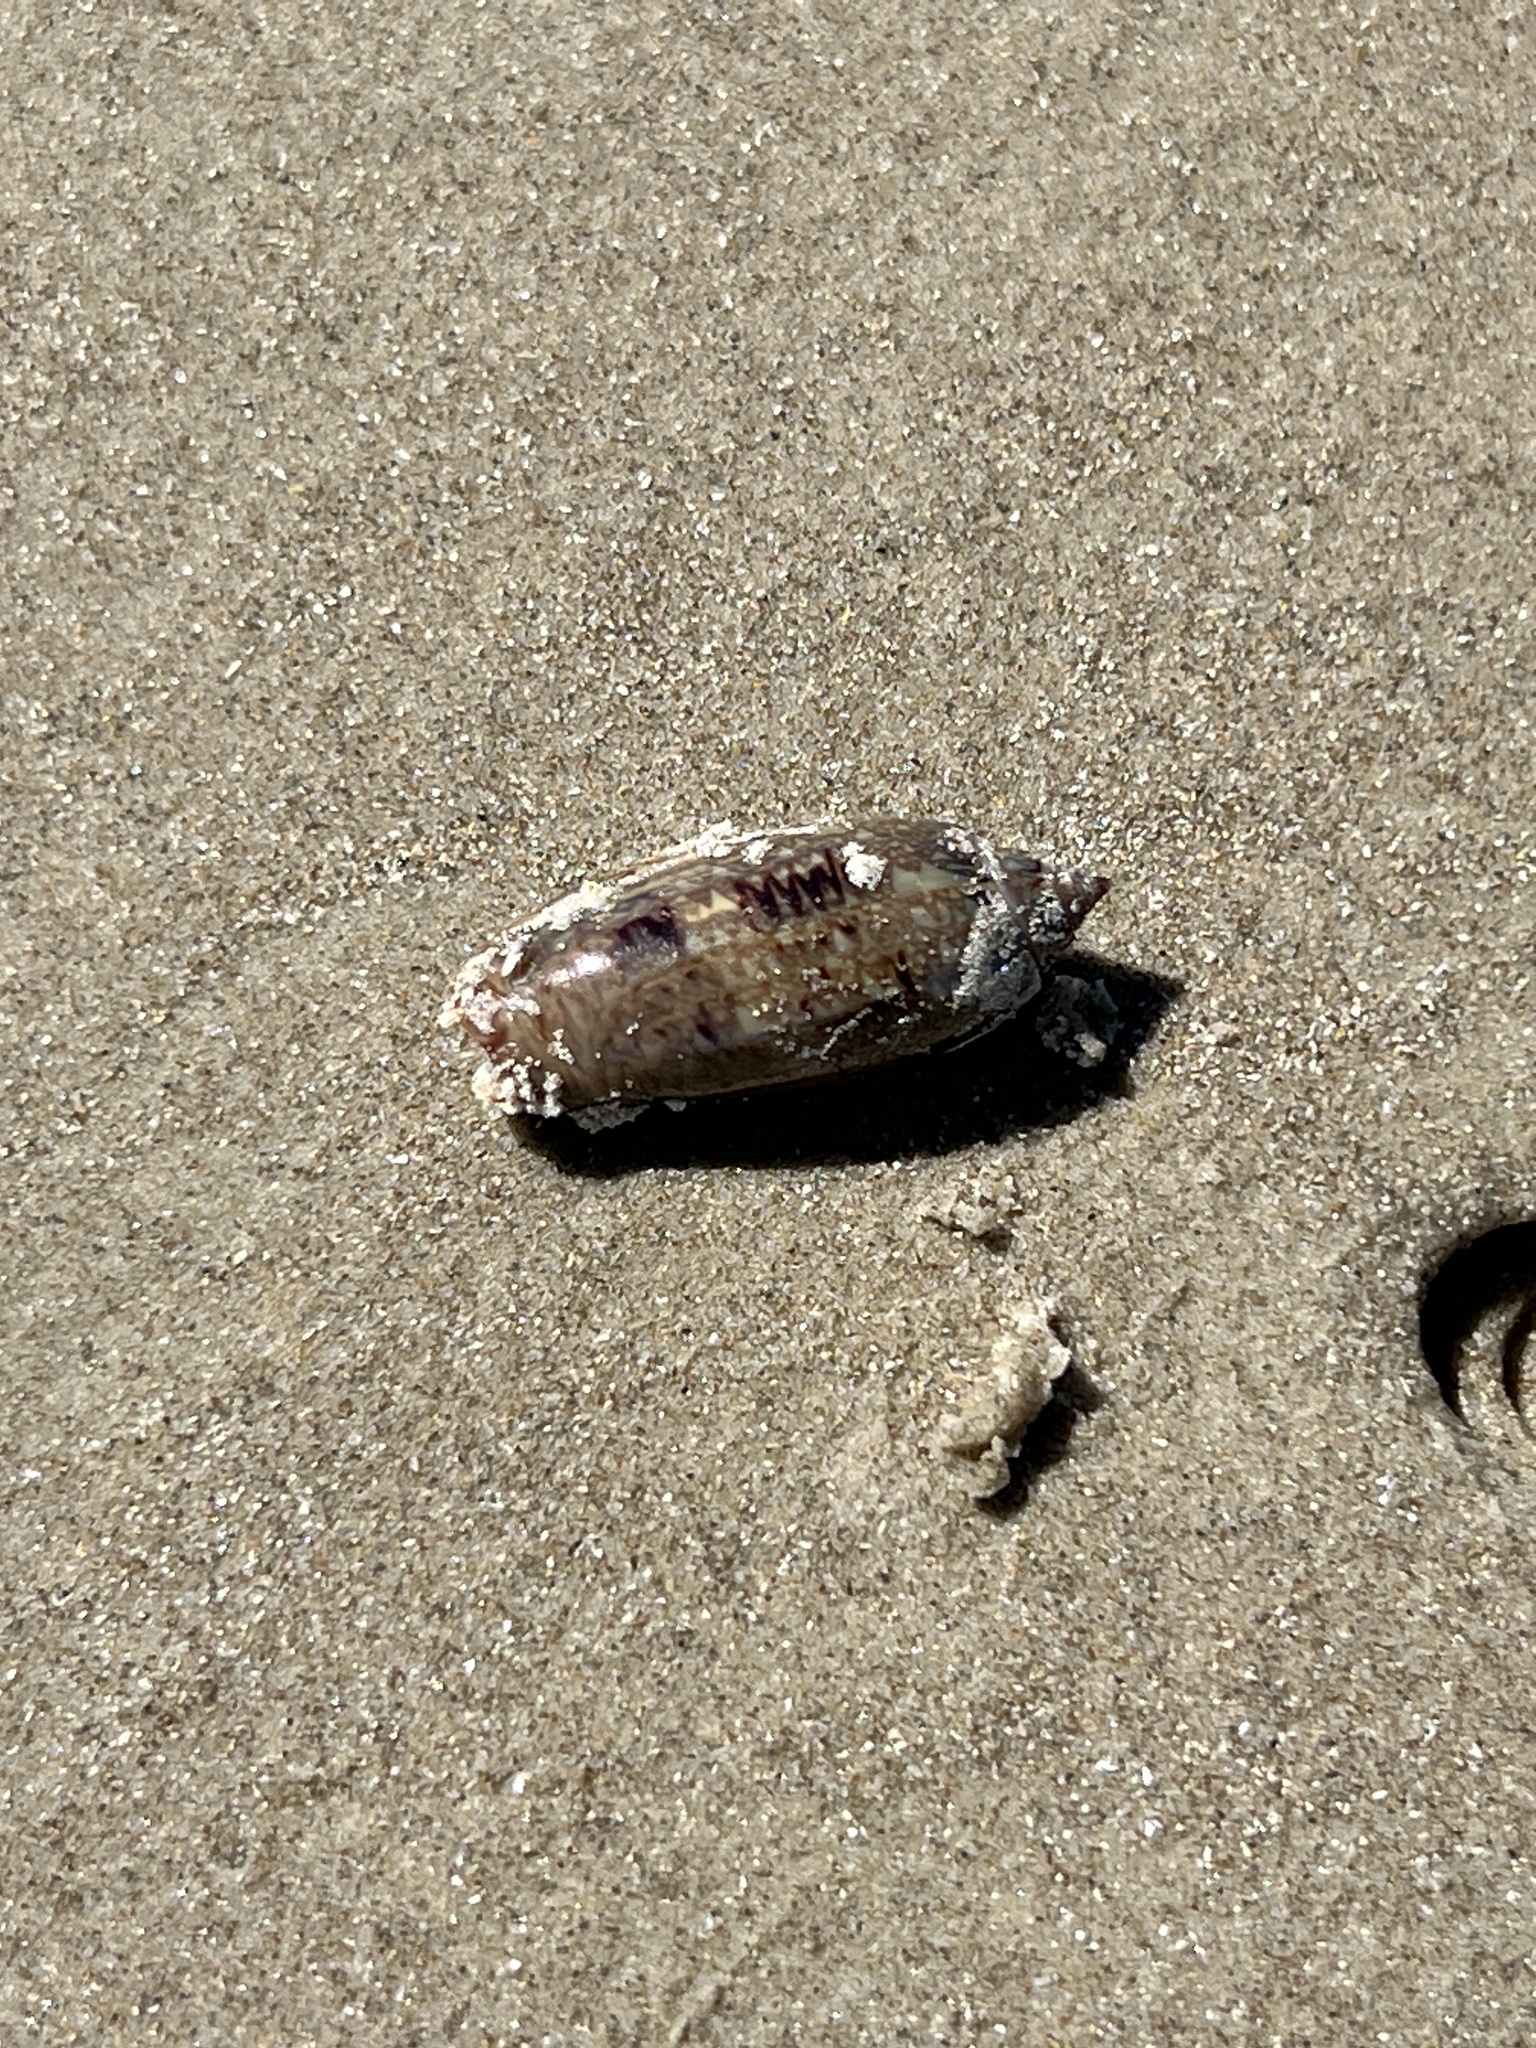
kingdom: Animalia
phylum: Mollusca
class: Gastropoda
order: Neogastropoda
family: Olividae
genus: Oliva
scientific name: Oliva sayana
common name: Lettered olive
